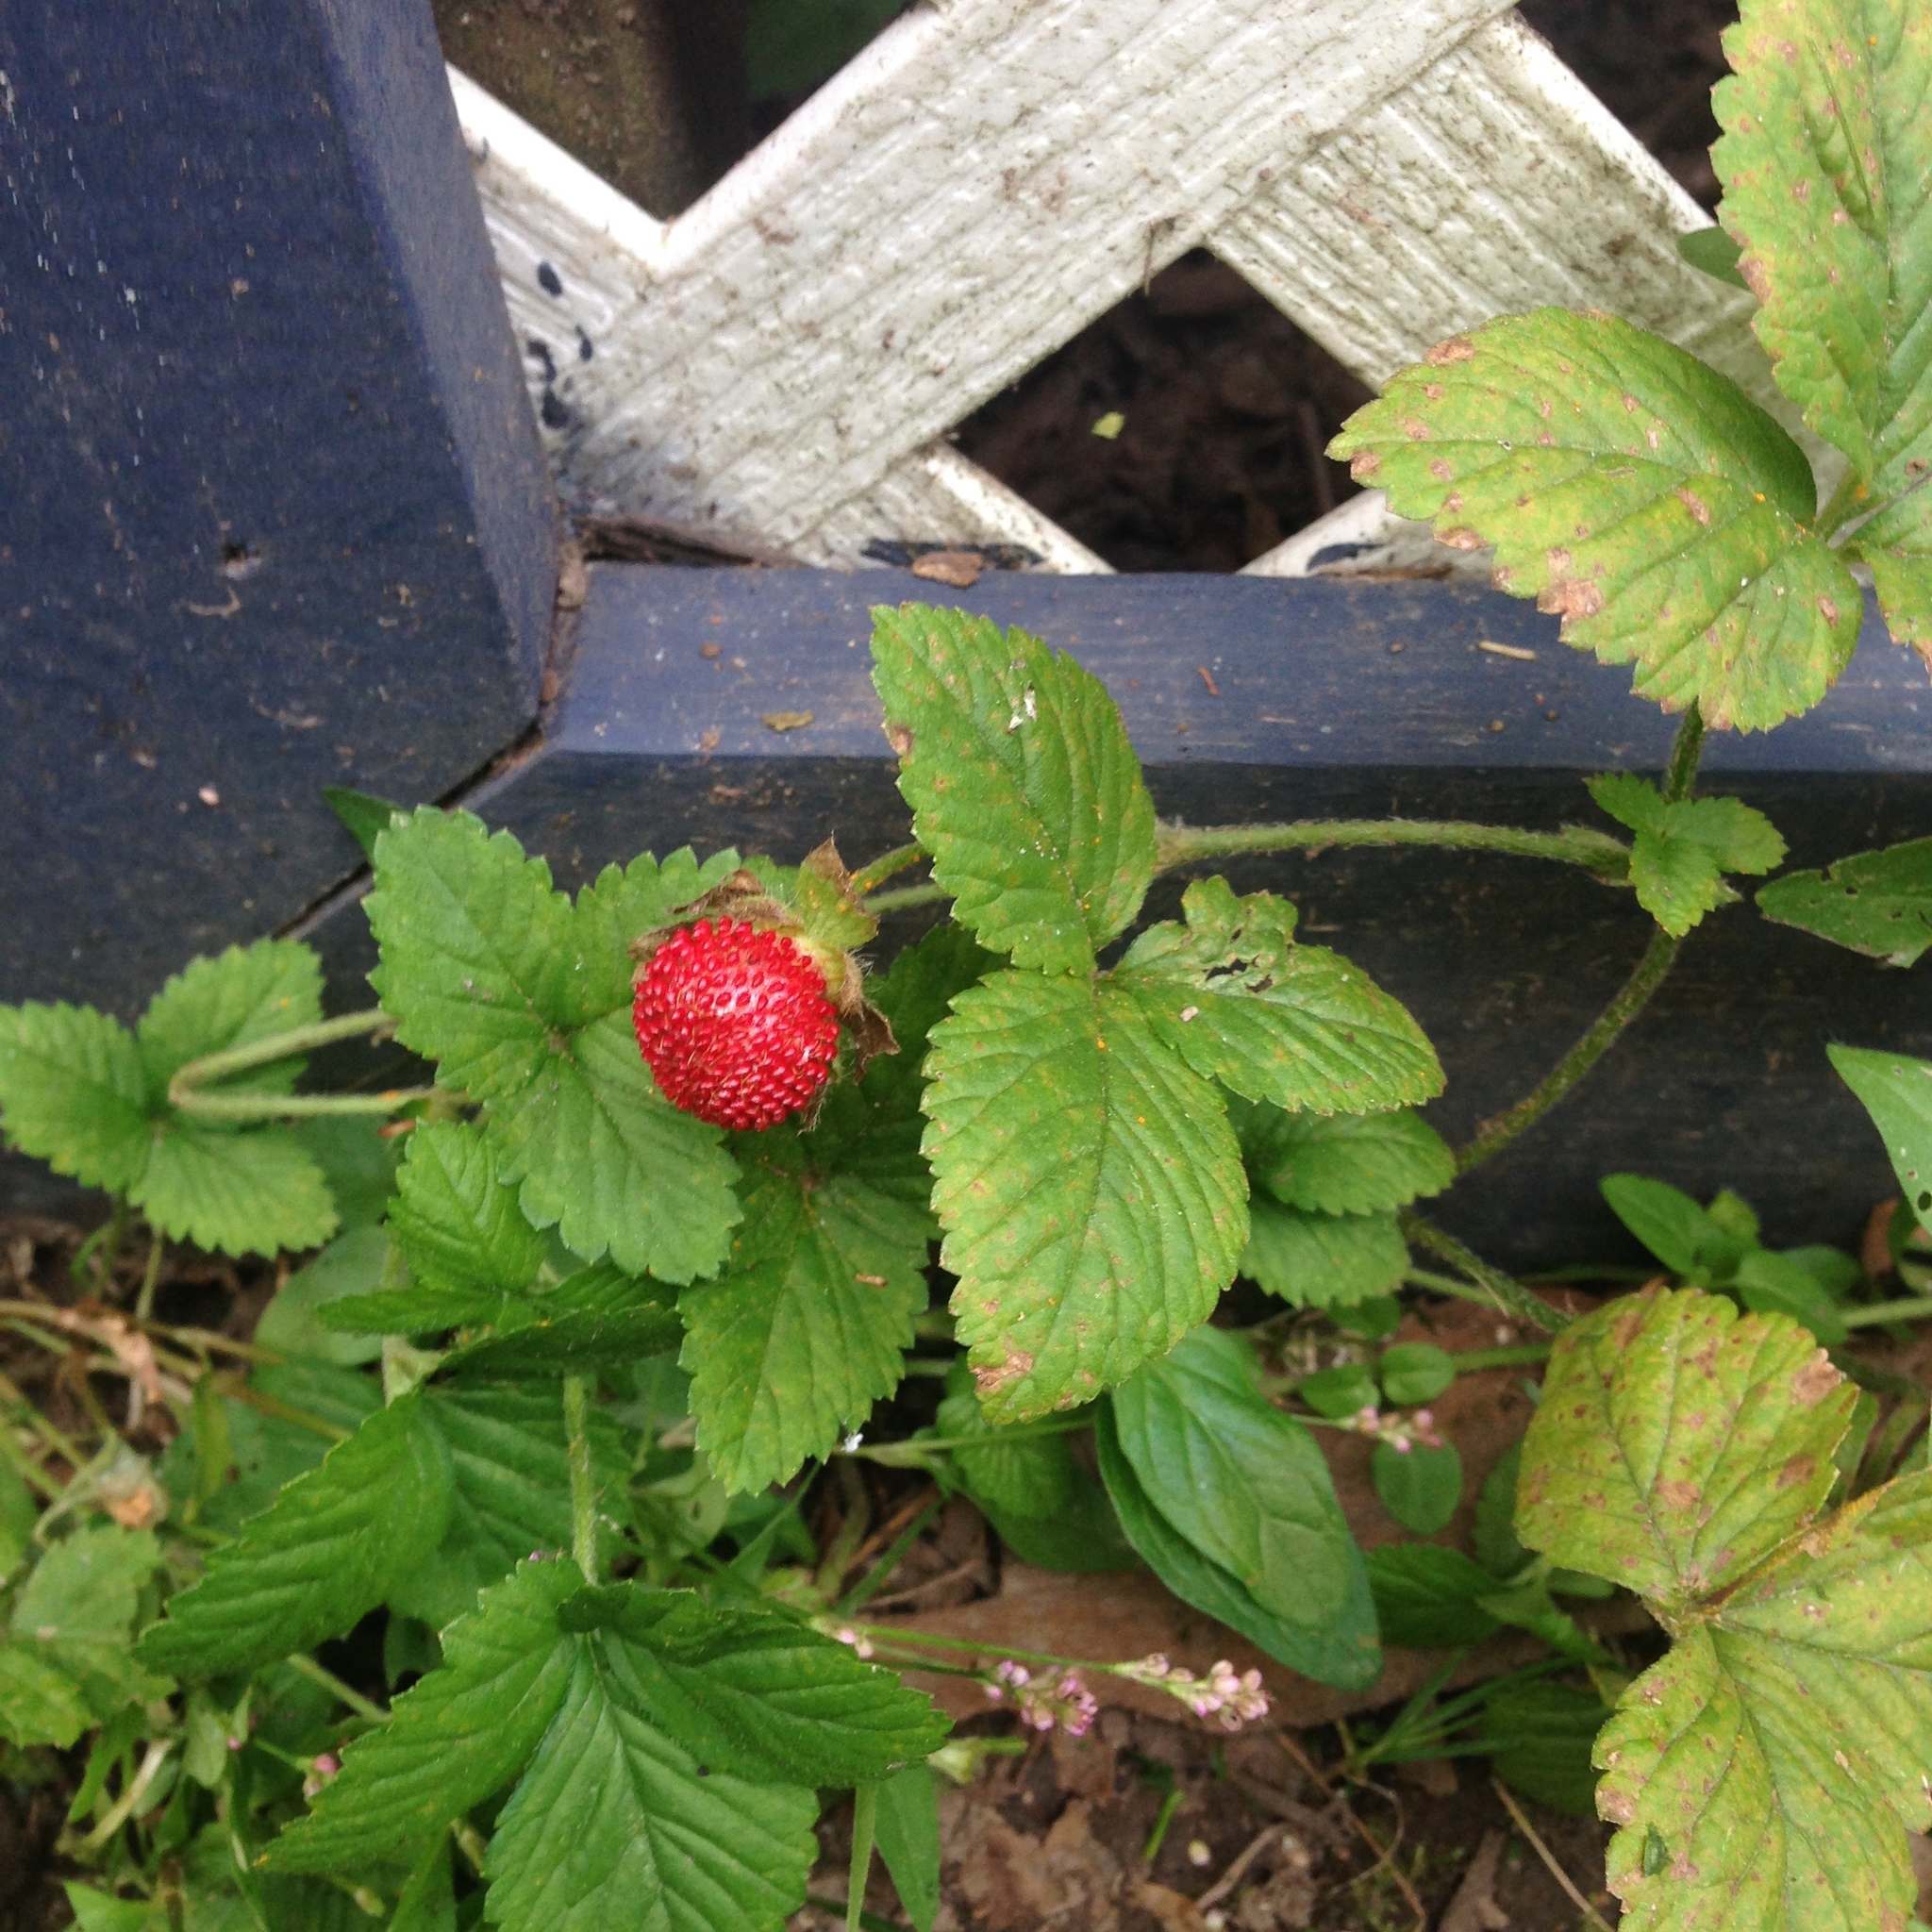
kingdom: Plantae
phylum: Tracheophyta
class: Magnoliopsida
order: Rosales
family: Rosaceae
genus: Potentilla
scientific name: Potentilla indica
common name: Yellow-flowered strawberry
